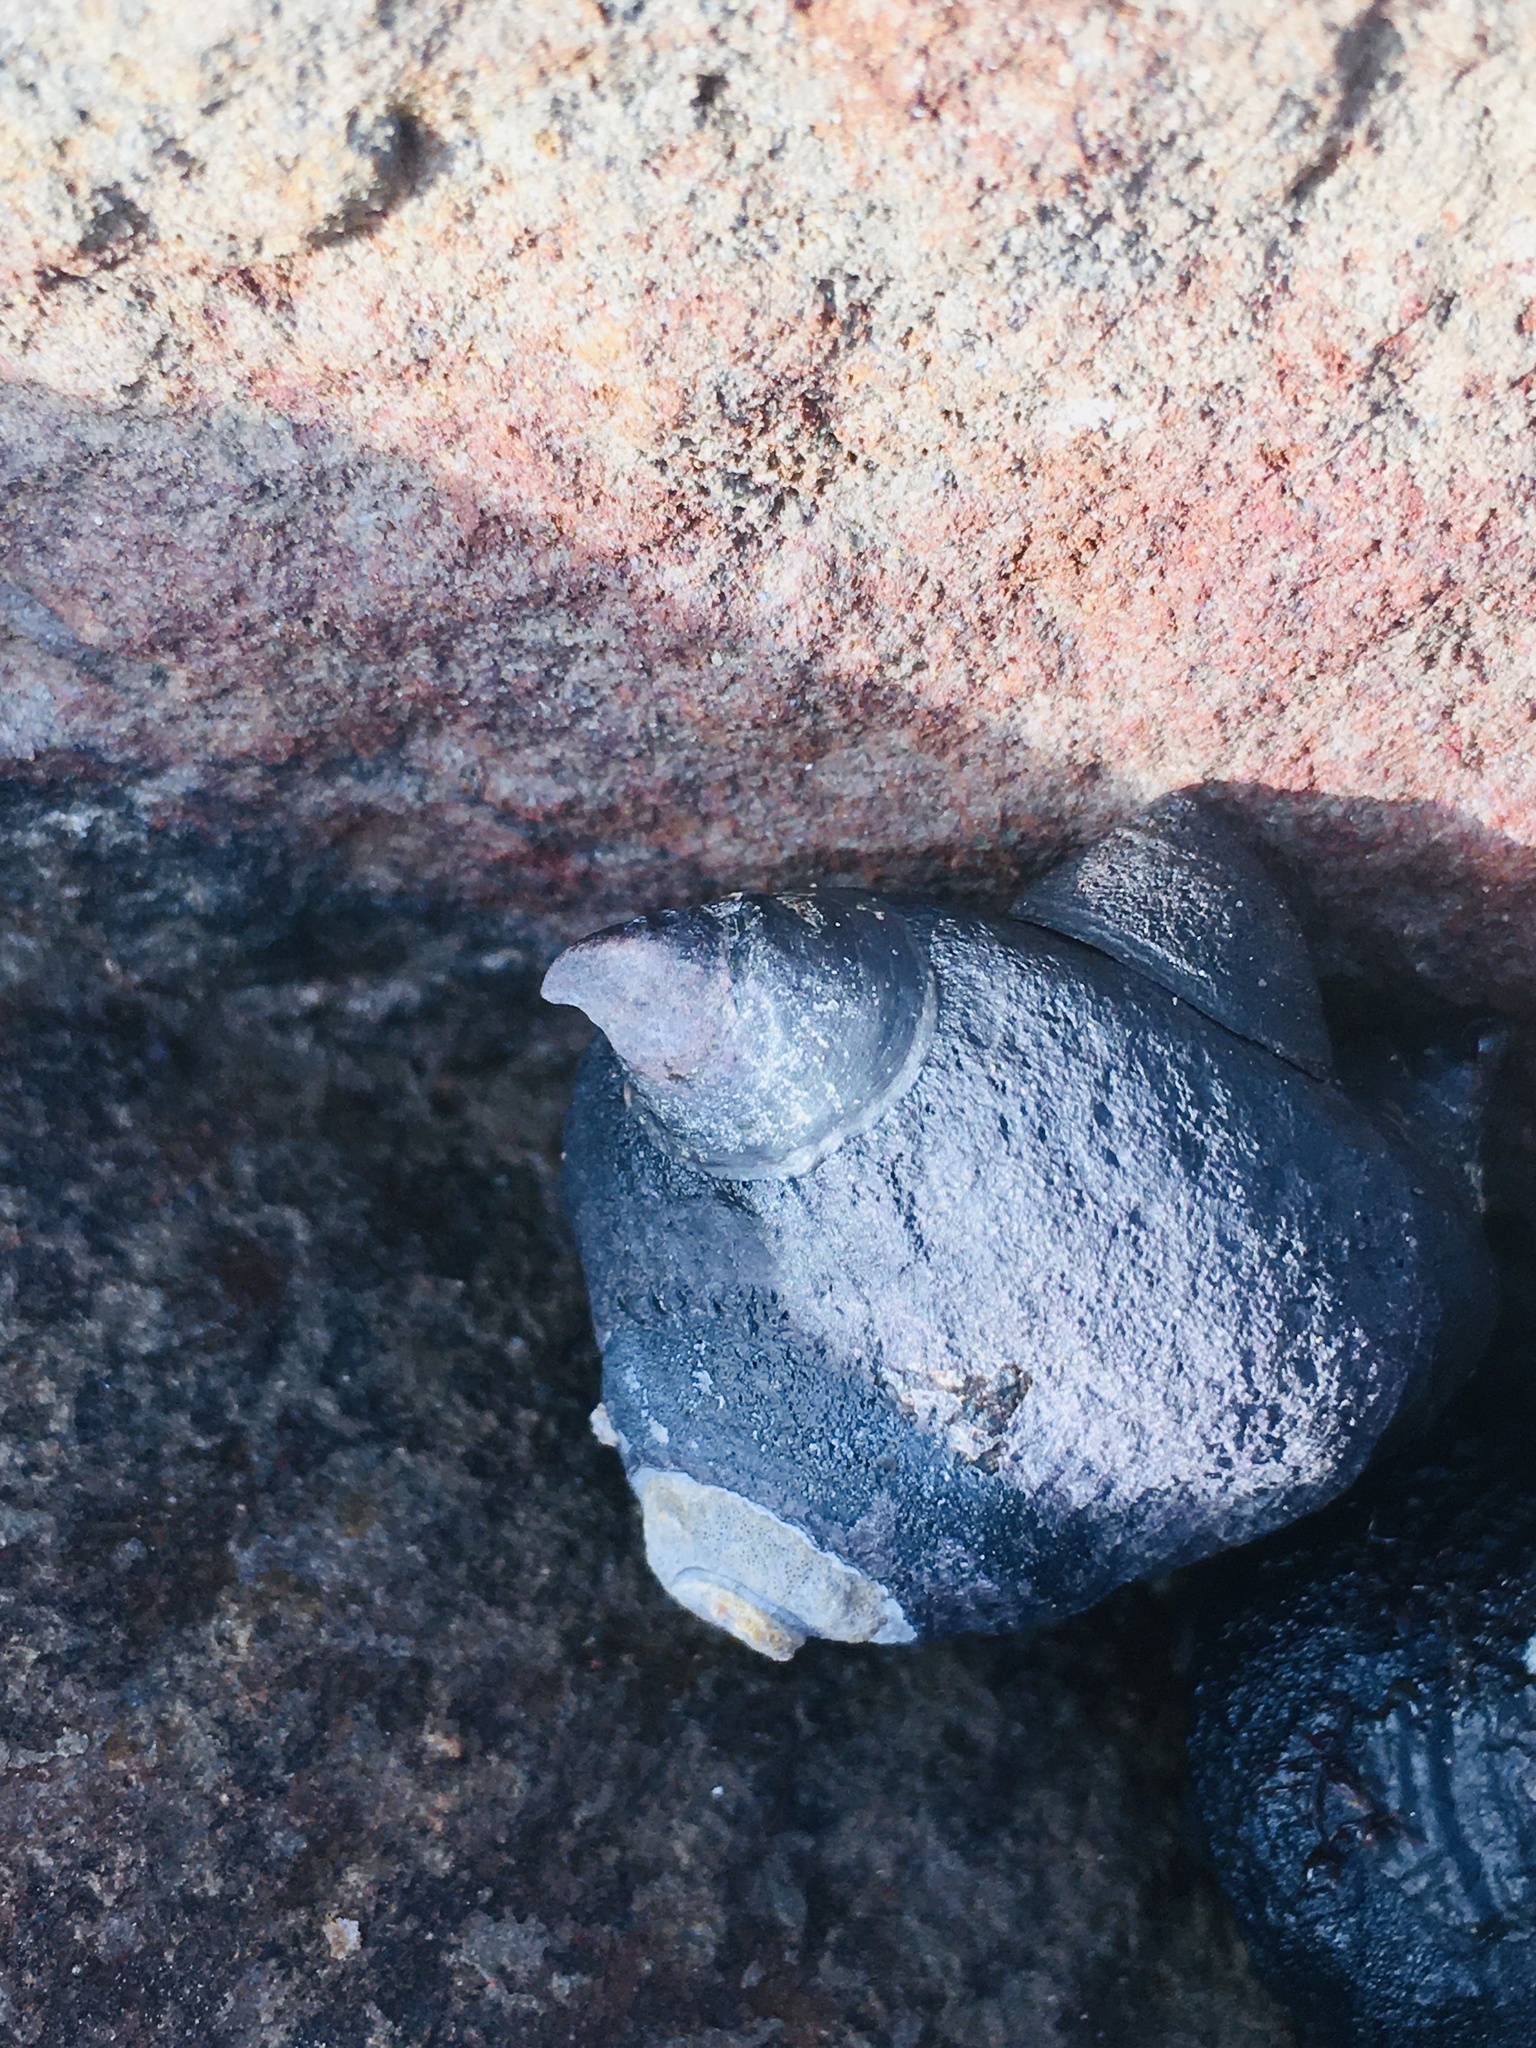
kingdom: Animalia
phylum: Mollusca
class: Gastropoda
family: Lottiidae
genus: Lottia
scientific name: Lottia asmi
